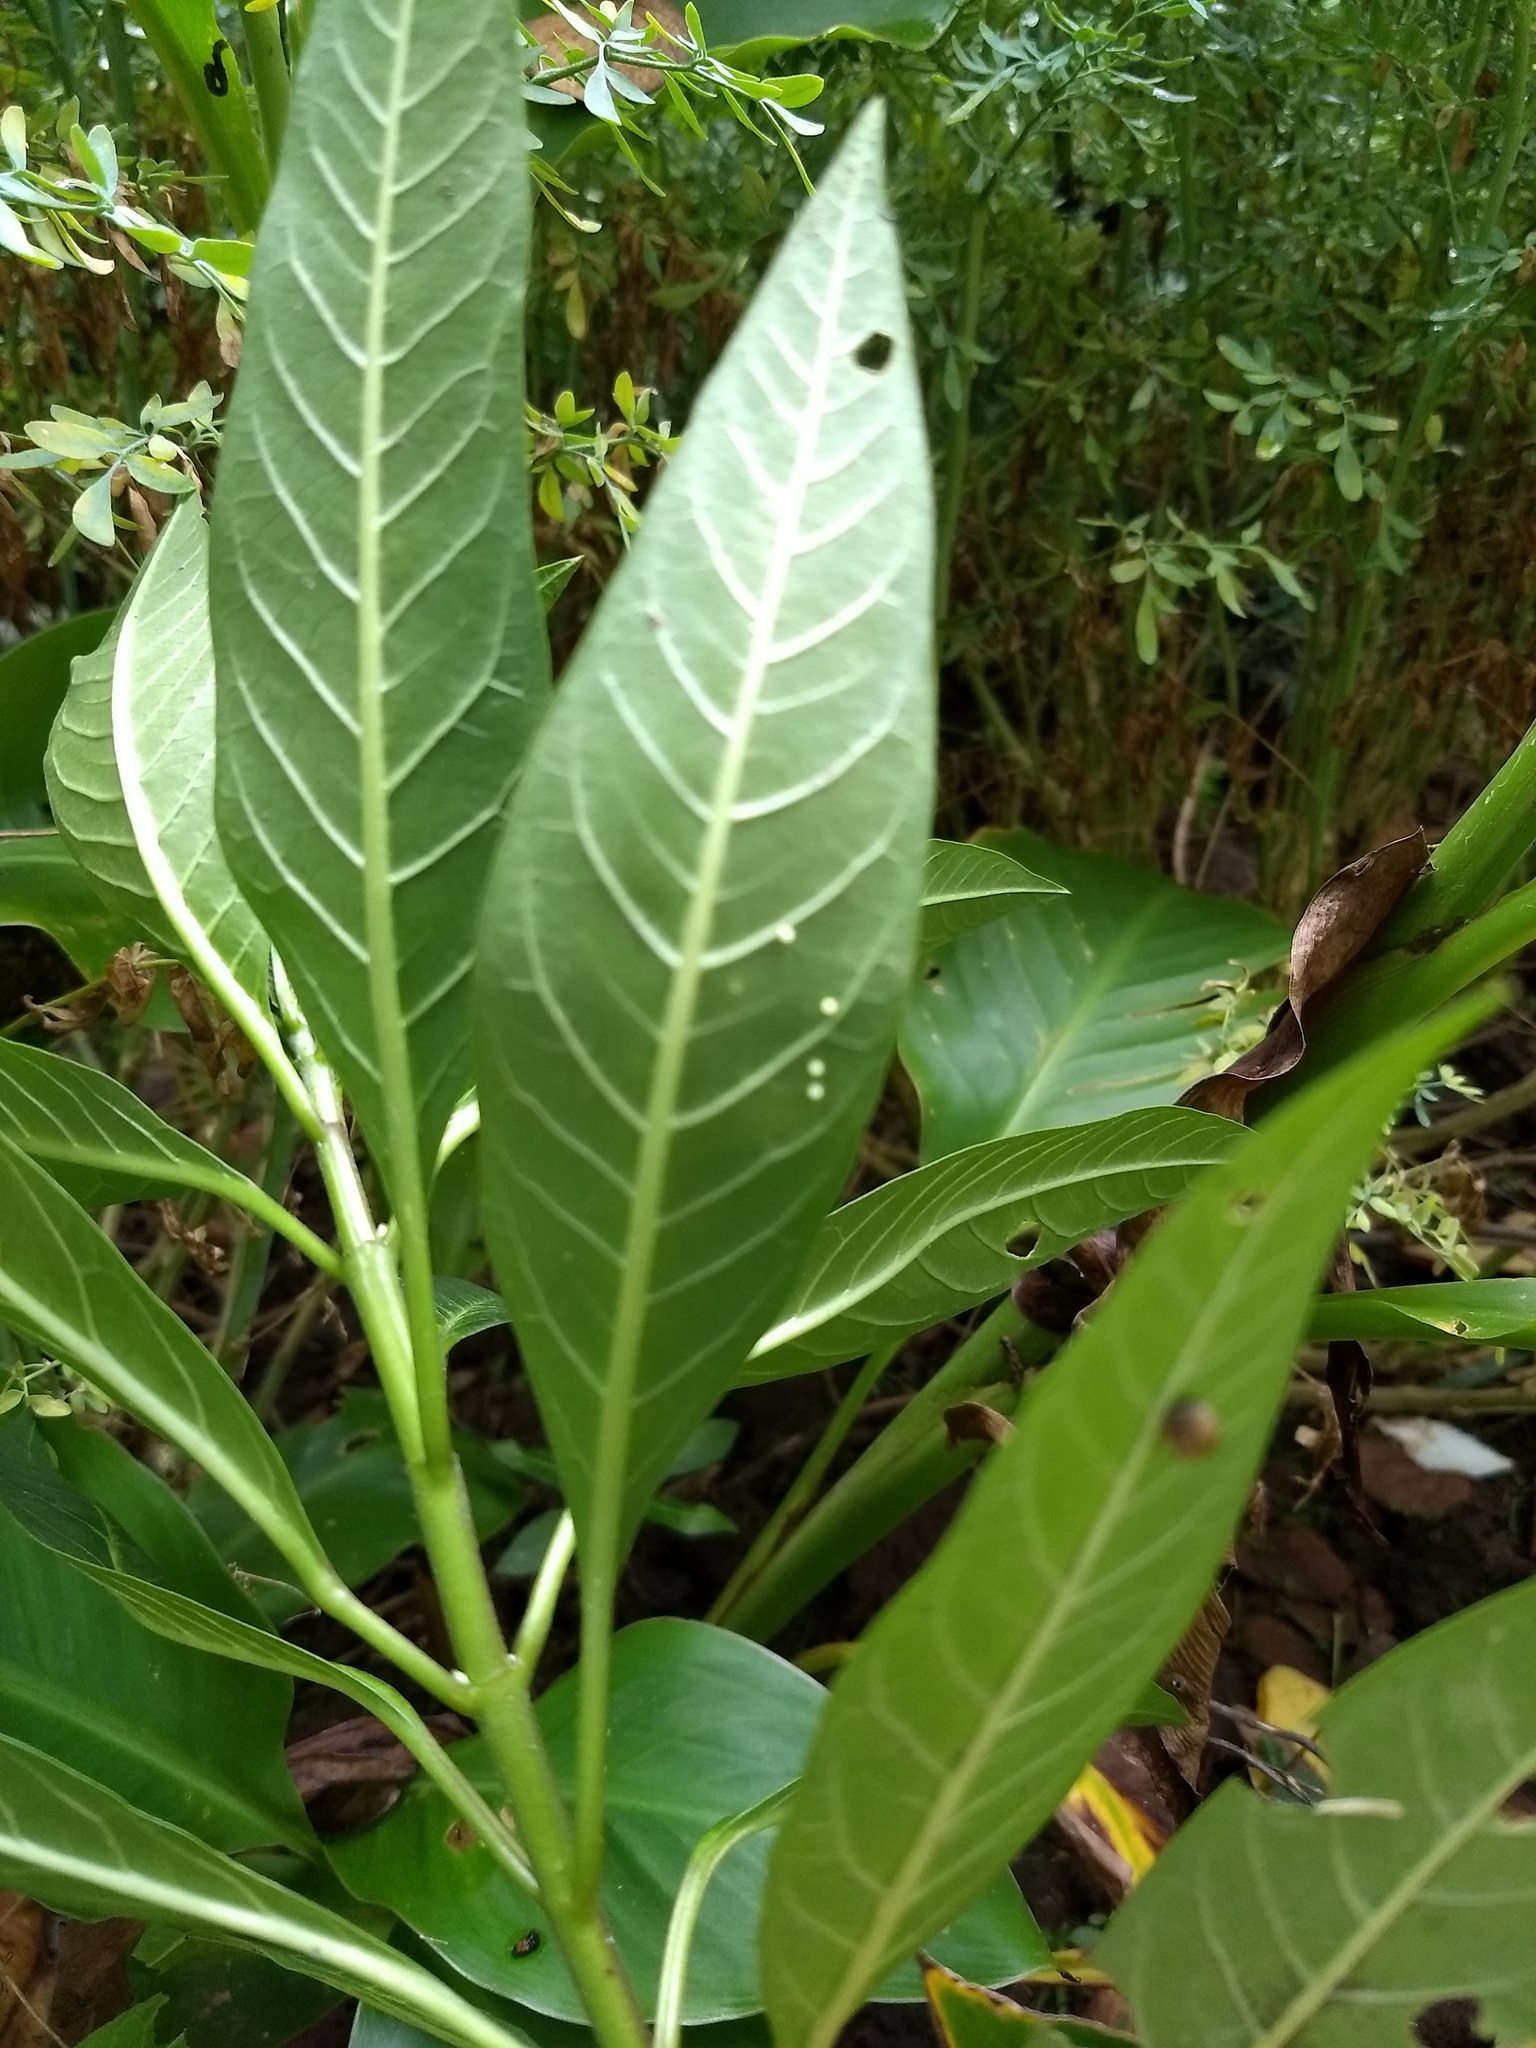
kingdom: Animalia
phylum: Arthropoda
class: Insecta
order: Lepidoptera
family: Nymphalidae
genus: Danaus
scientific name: Danaus plexippus
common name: Monarch
